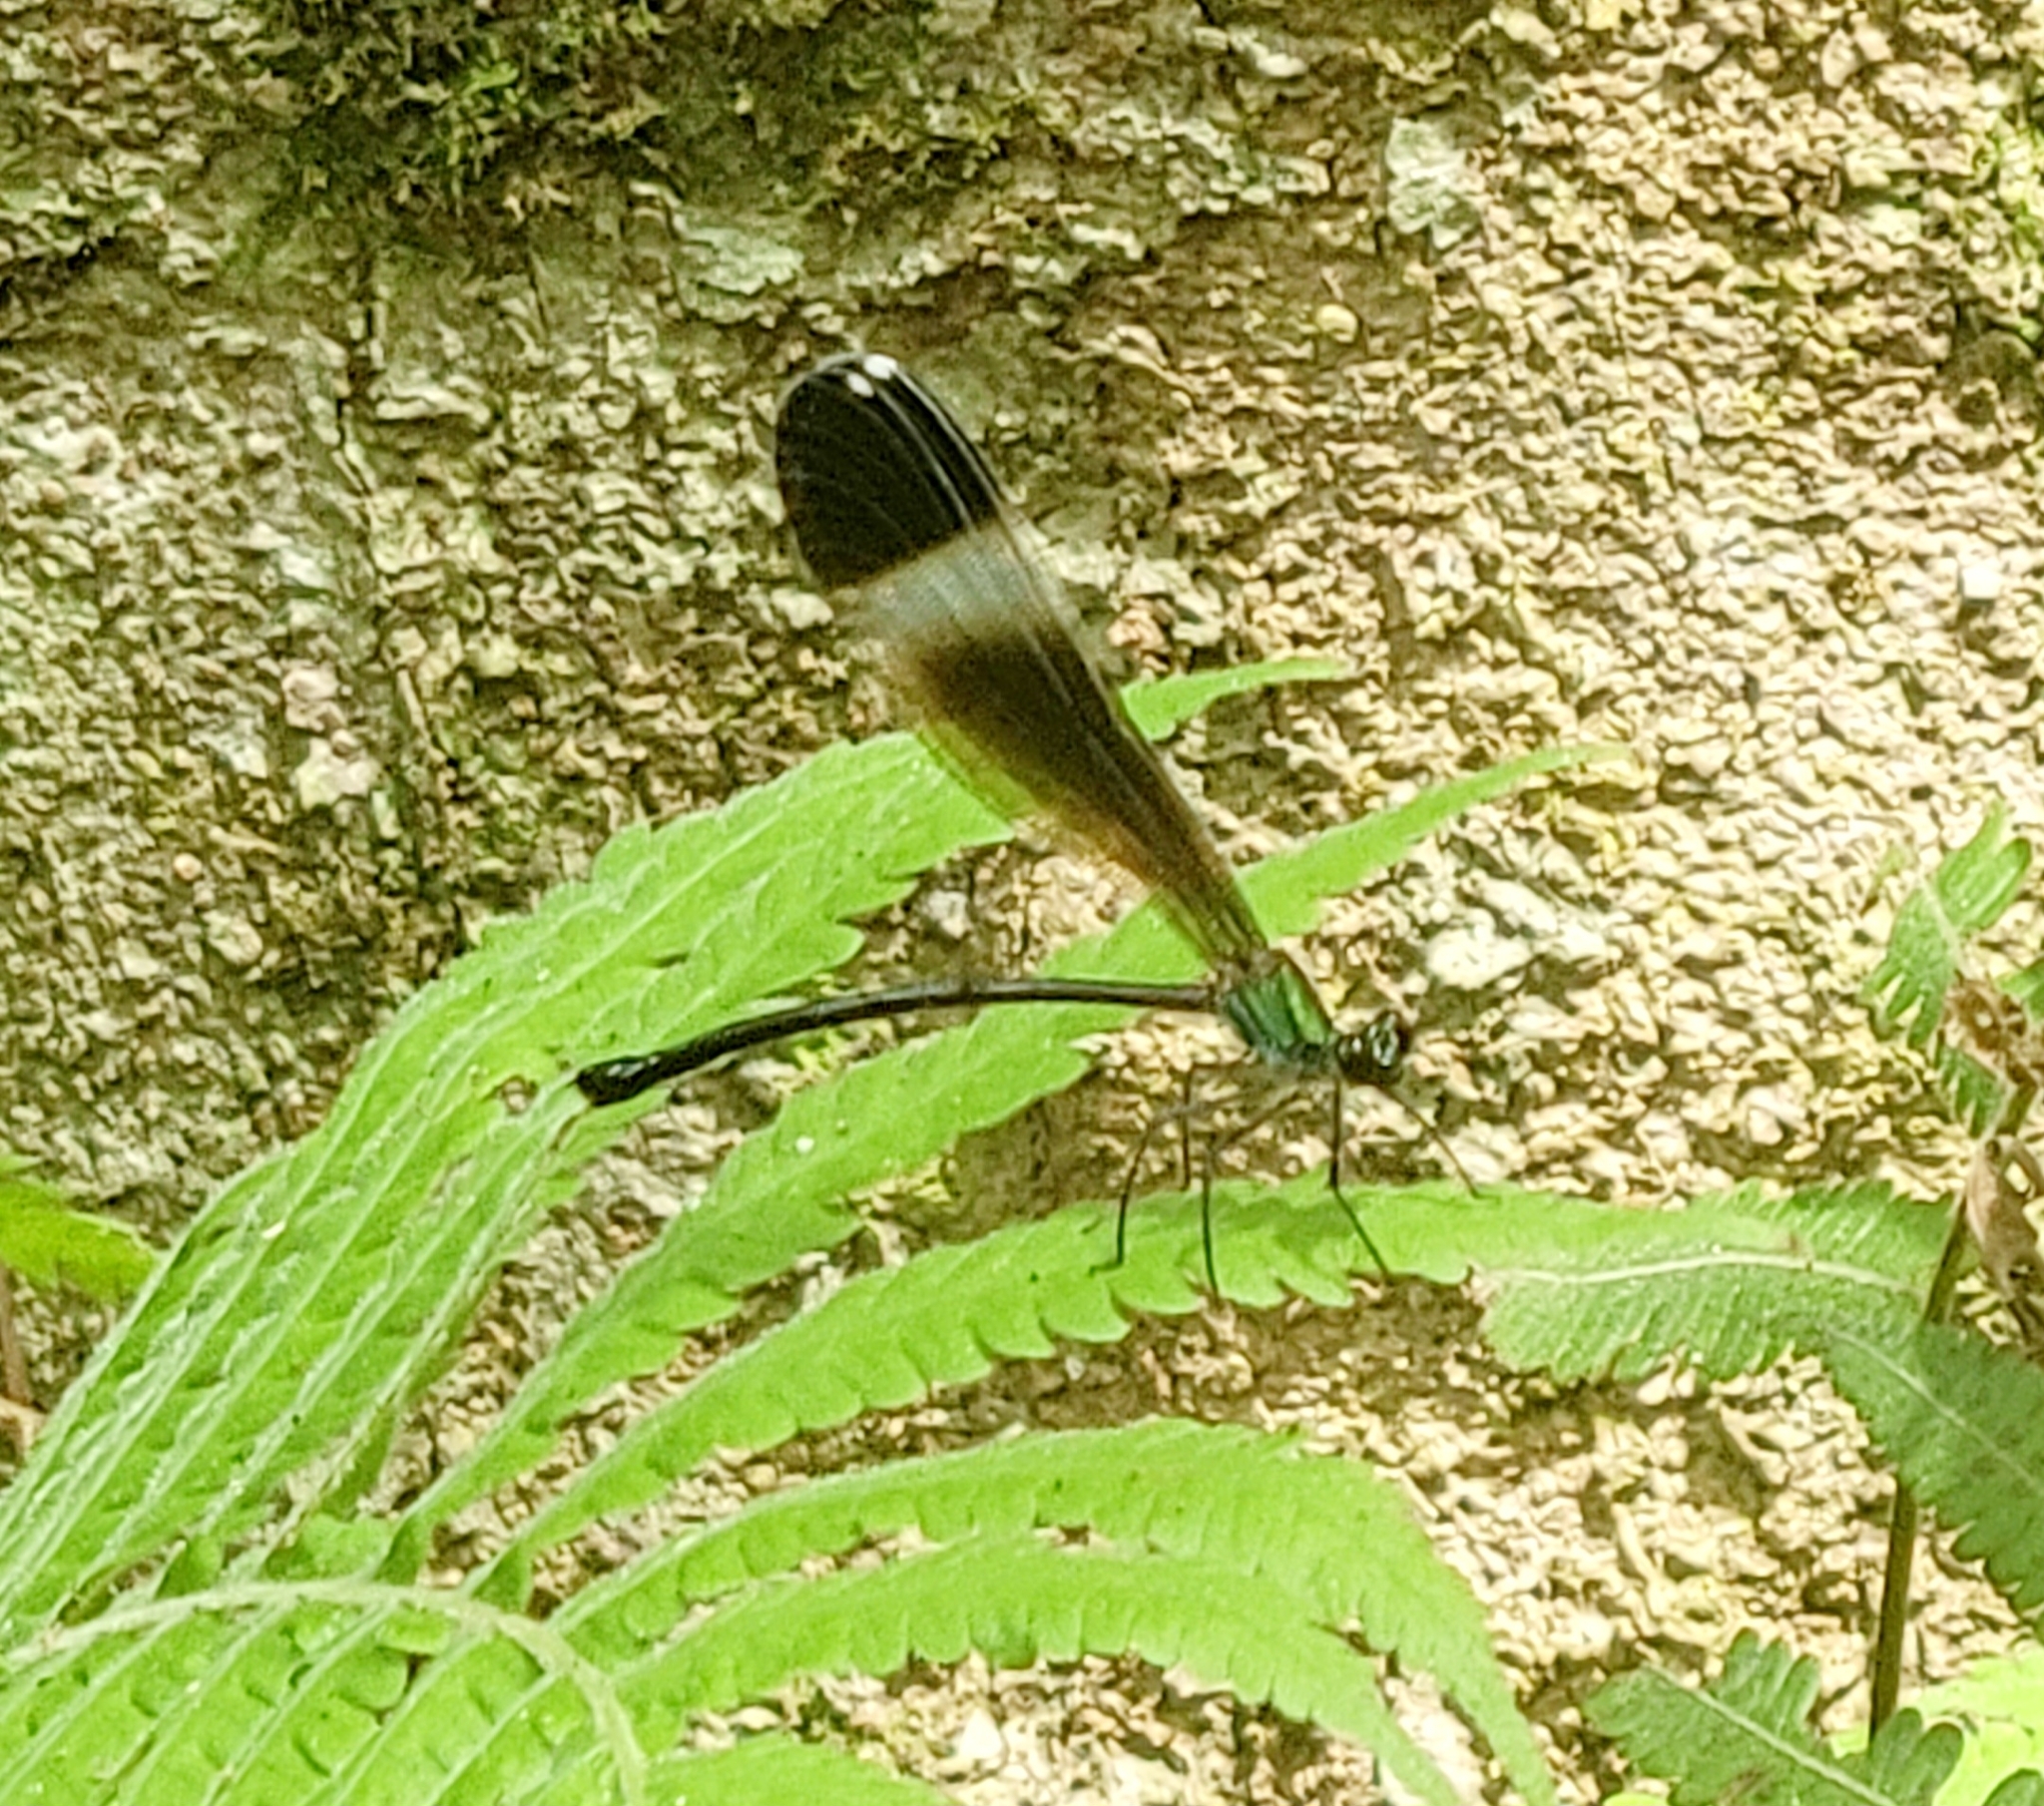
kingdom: Animalia
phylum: Arthropoda
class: Insecta
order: Odonata
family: Calopterygidae
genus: Psolodesmus
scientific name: Psolodesmus mandarinus
